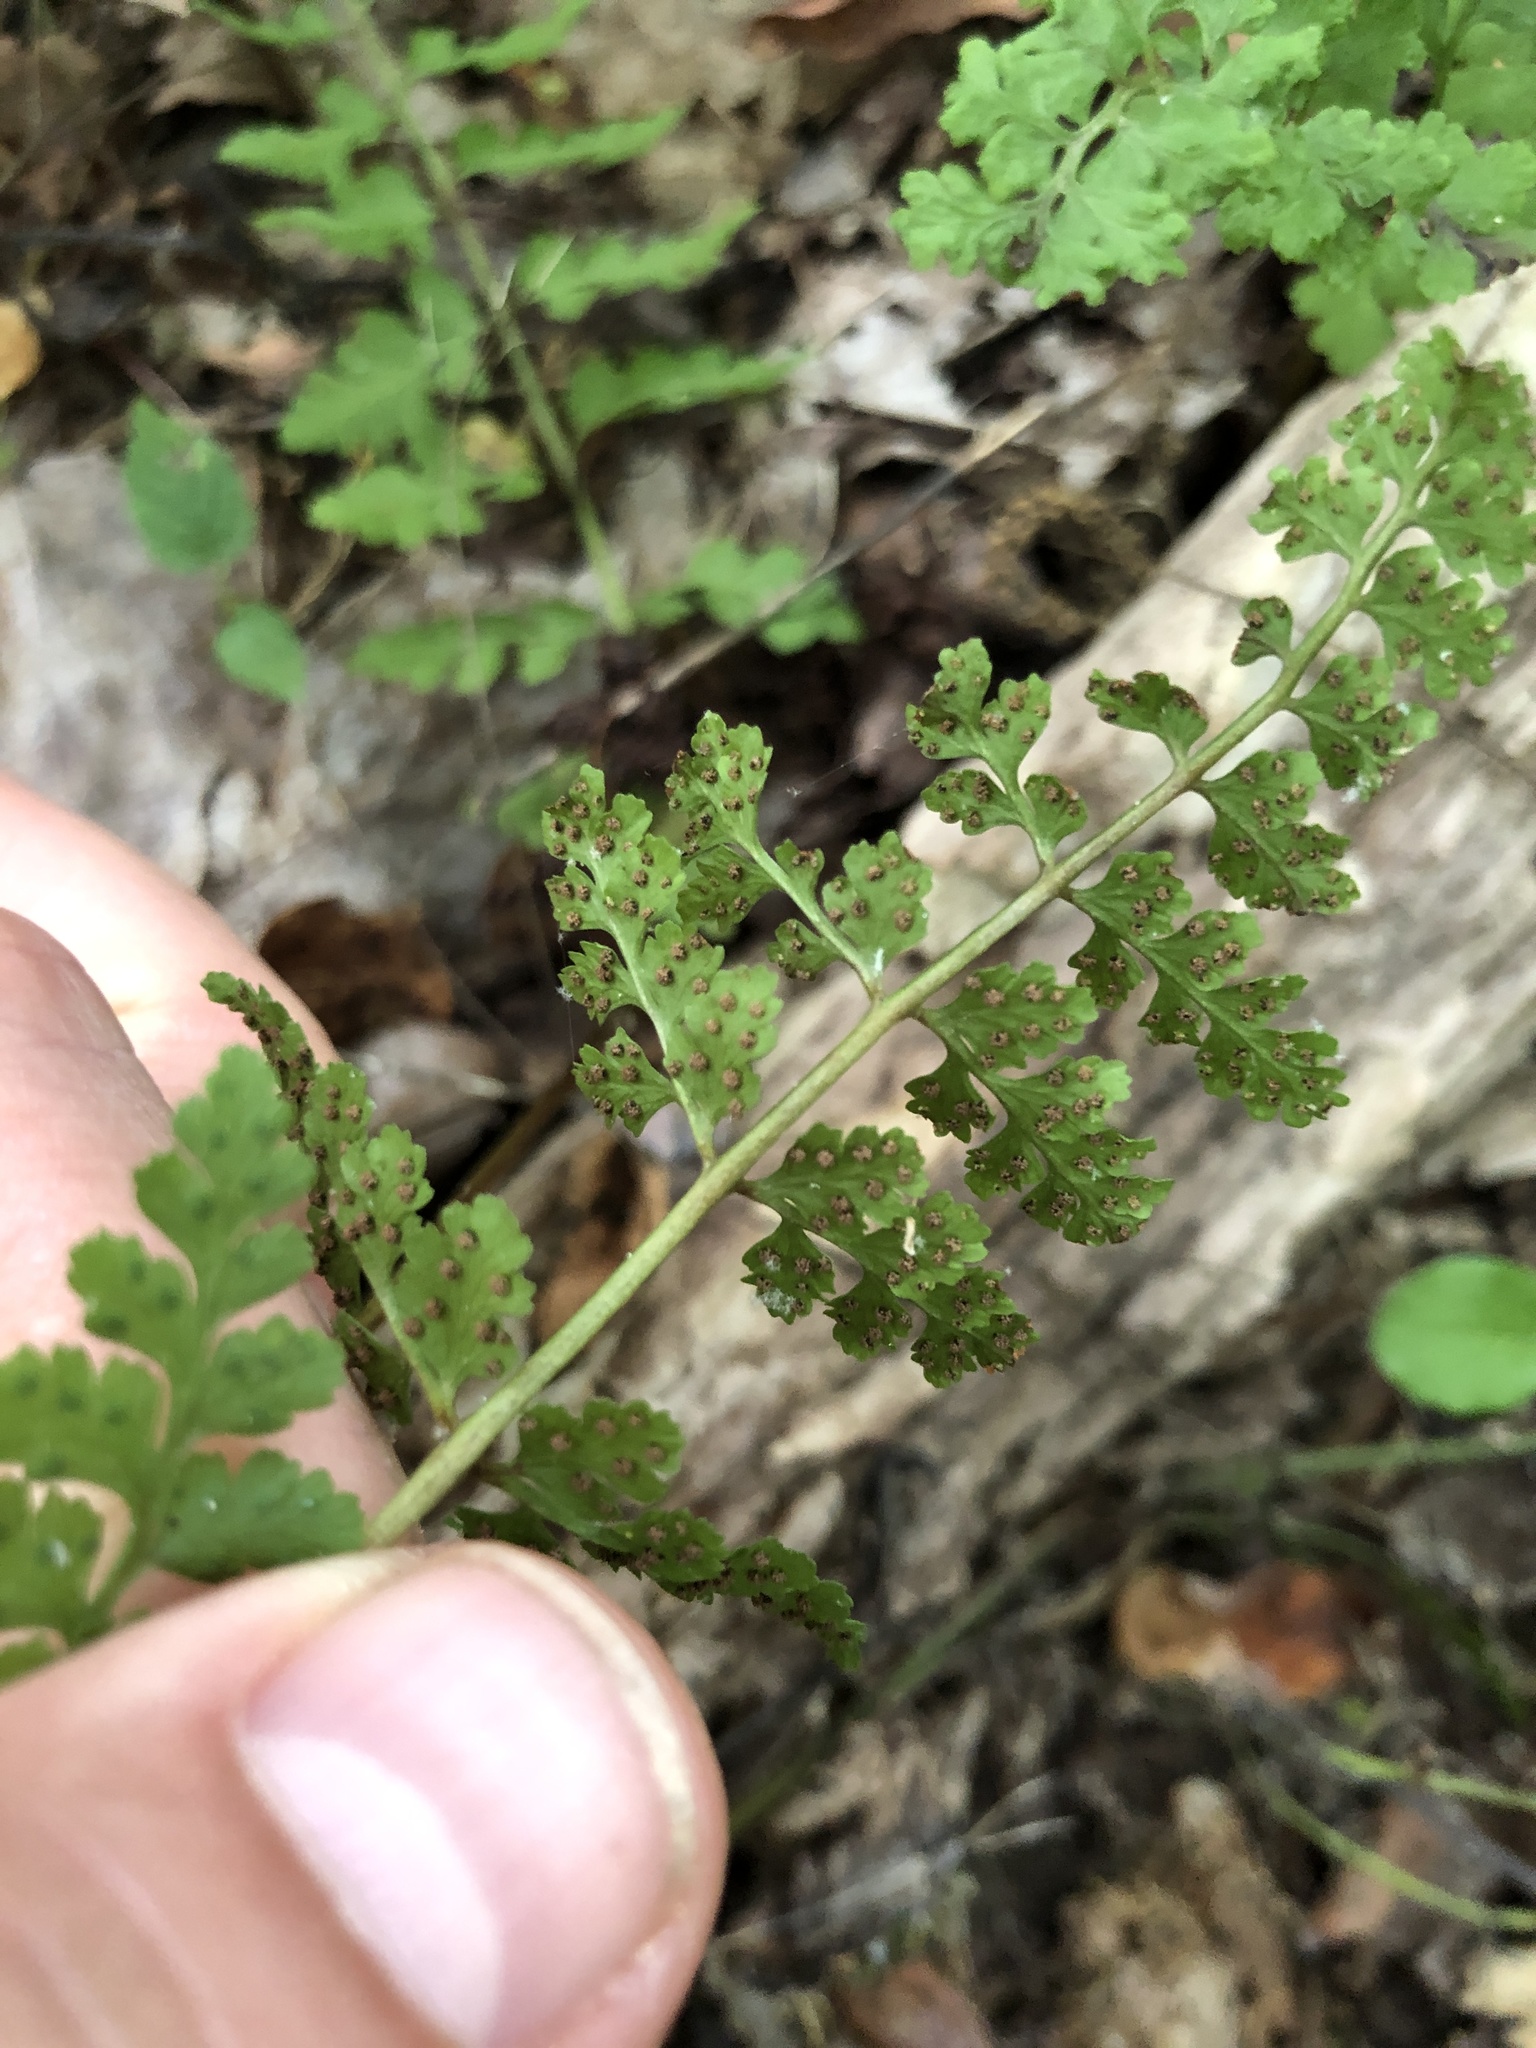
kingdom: Plantae
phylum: Tracheophyta
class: Polypodiopsida
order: Polypodiales
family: Cystopteridaceae
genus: Cystopteris
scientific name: Cystopteris protrusa
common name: Lowland brittle fern
